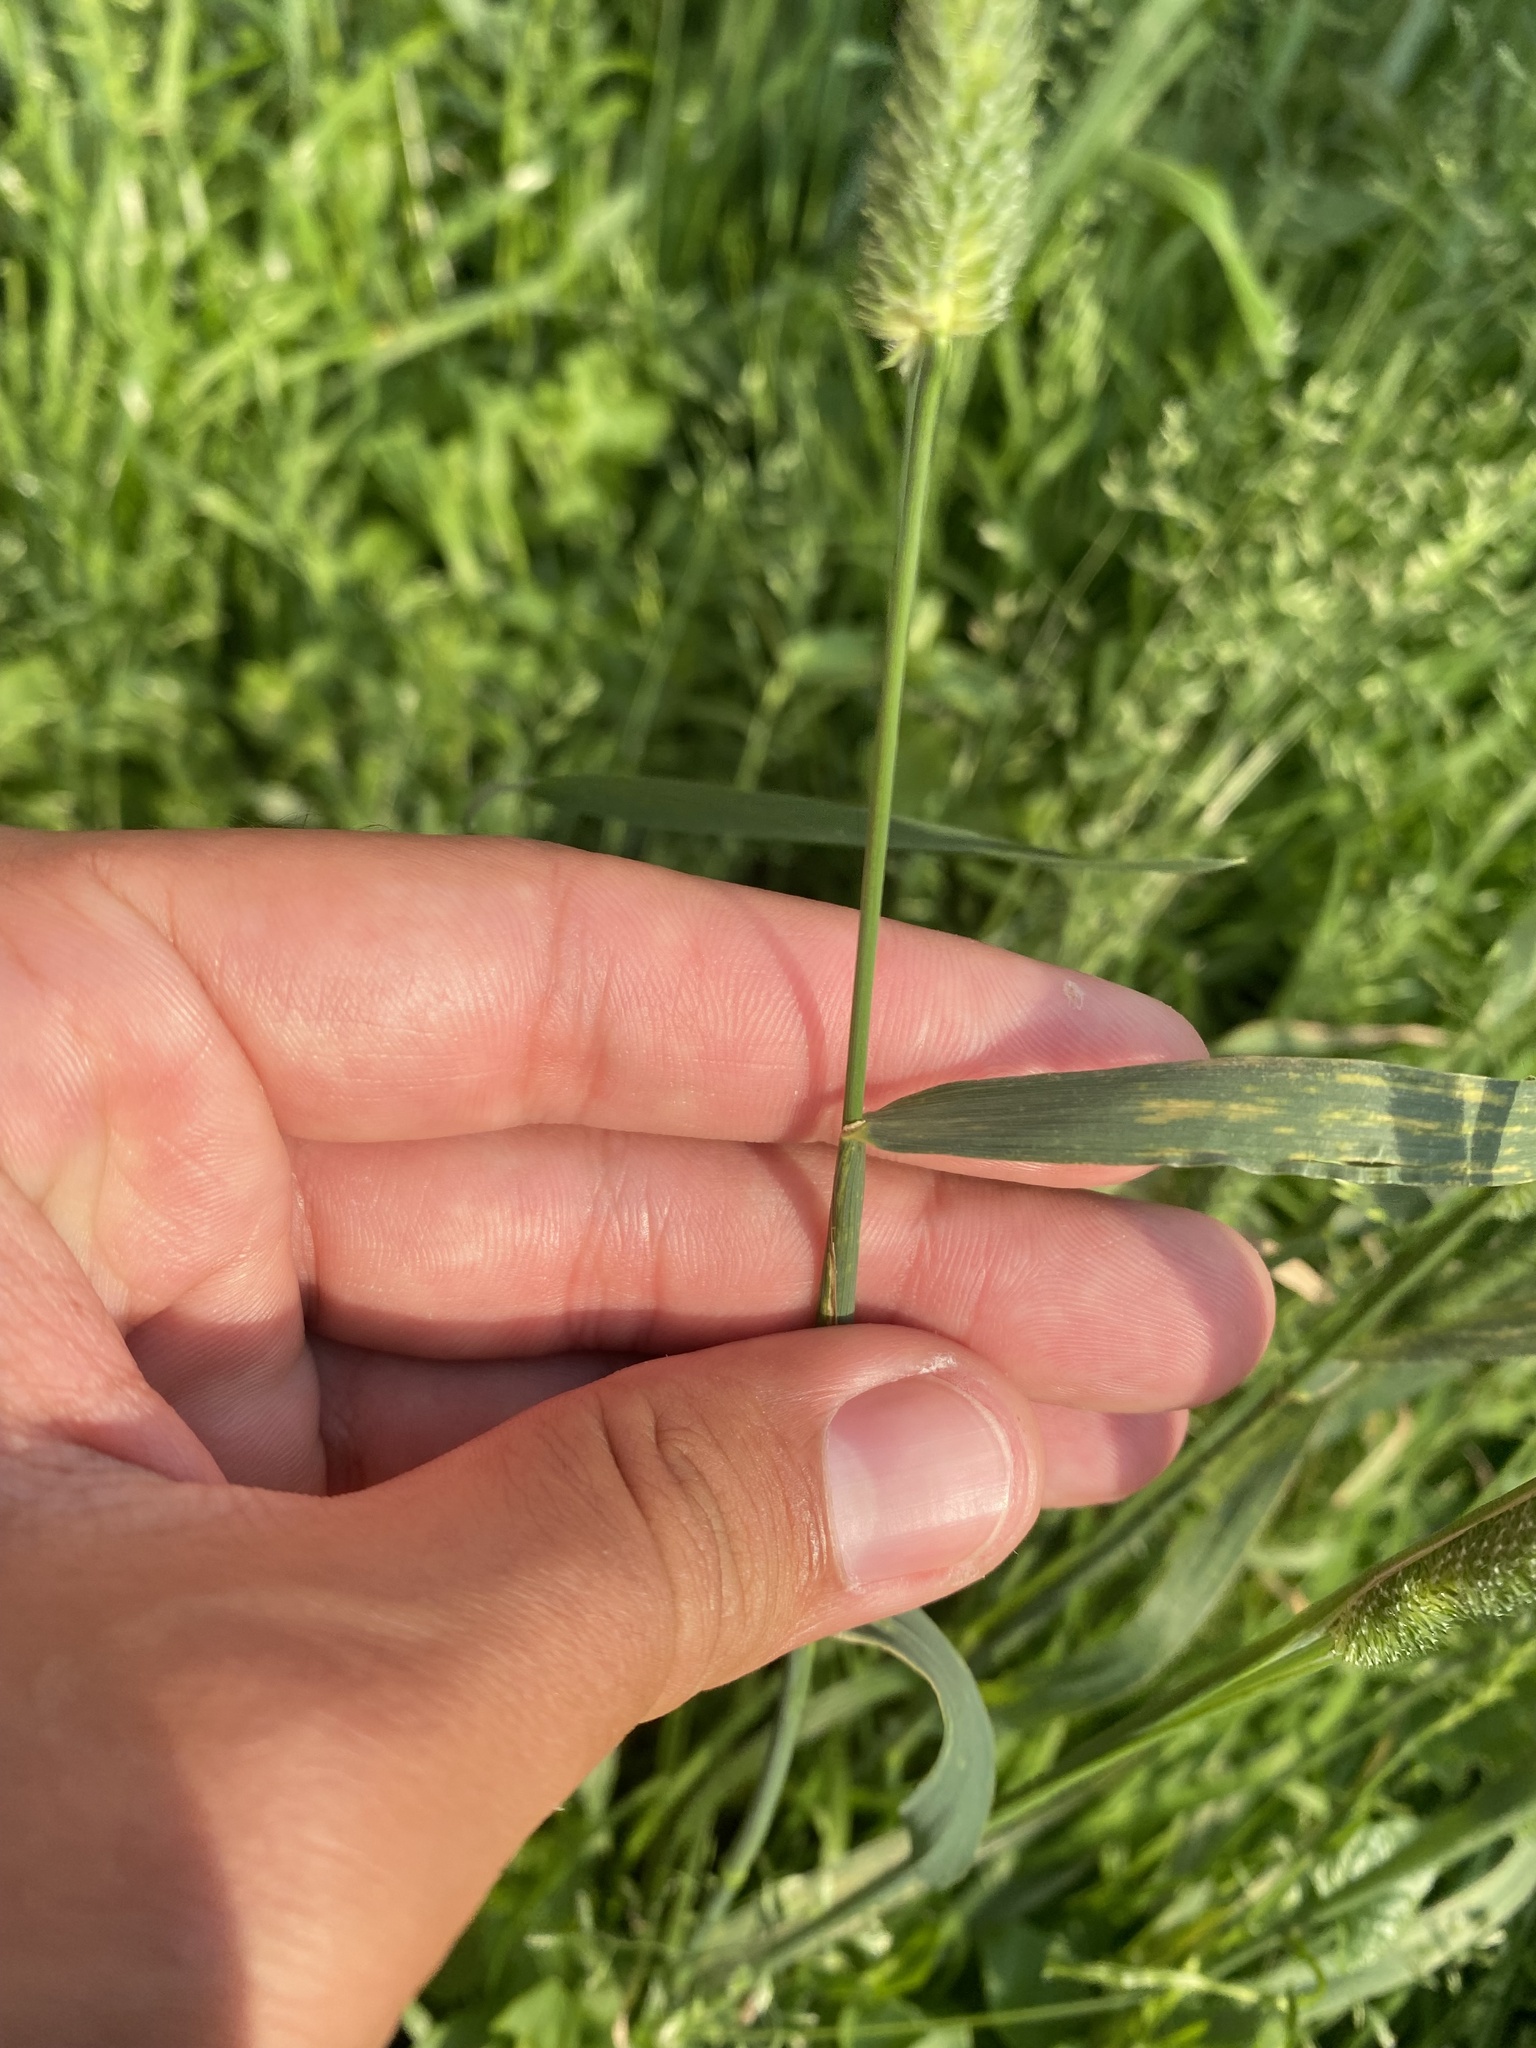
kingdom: Plantae
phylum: Tracheophyta
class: Liliopsida
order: Poales
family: Poaceae
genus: Phleum
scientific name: Phleum pratense
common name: Timothy grass
